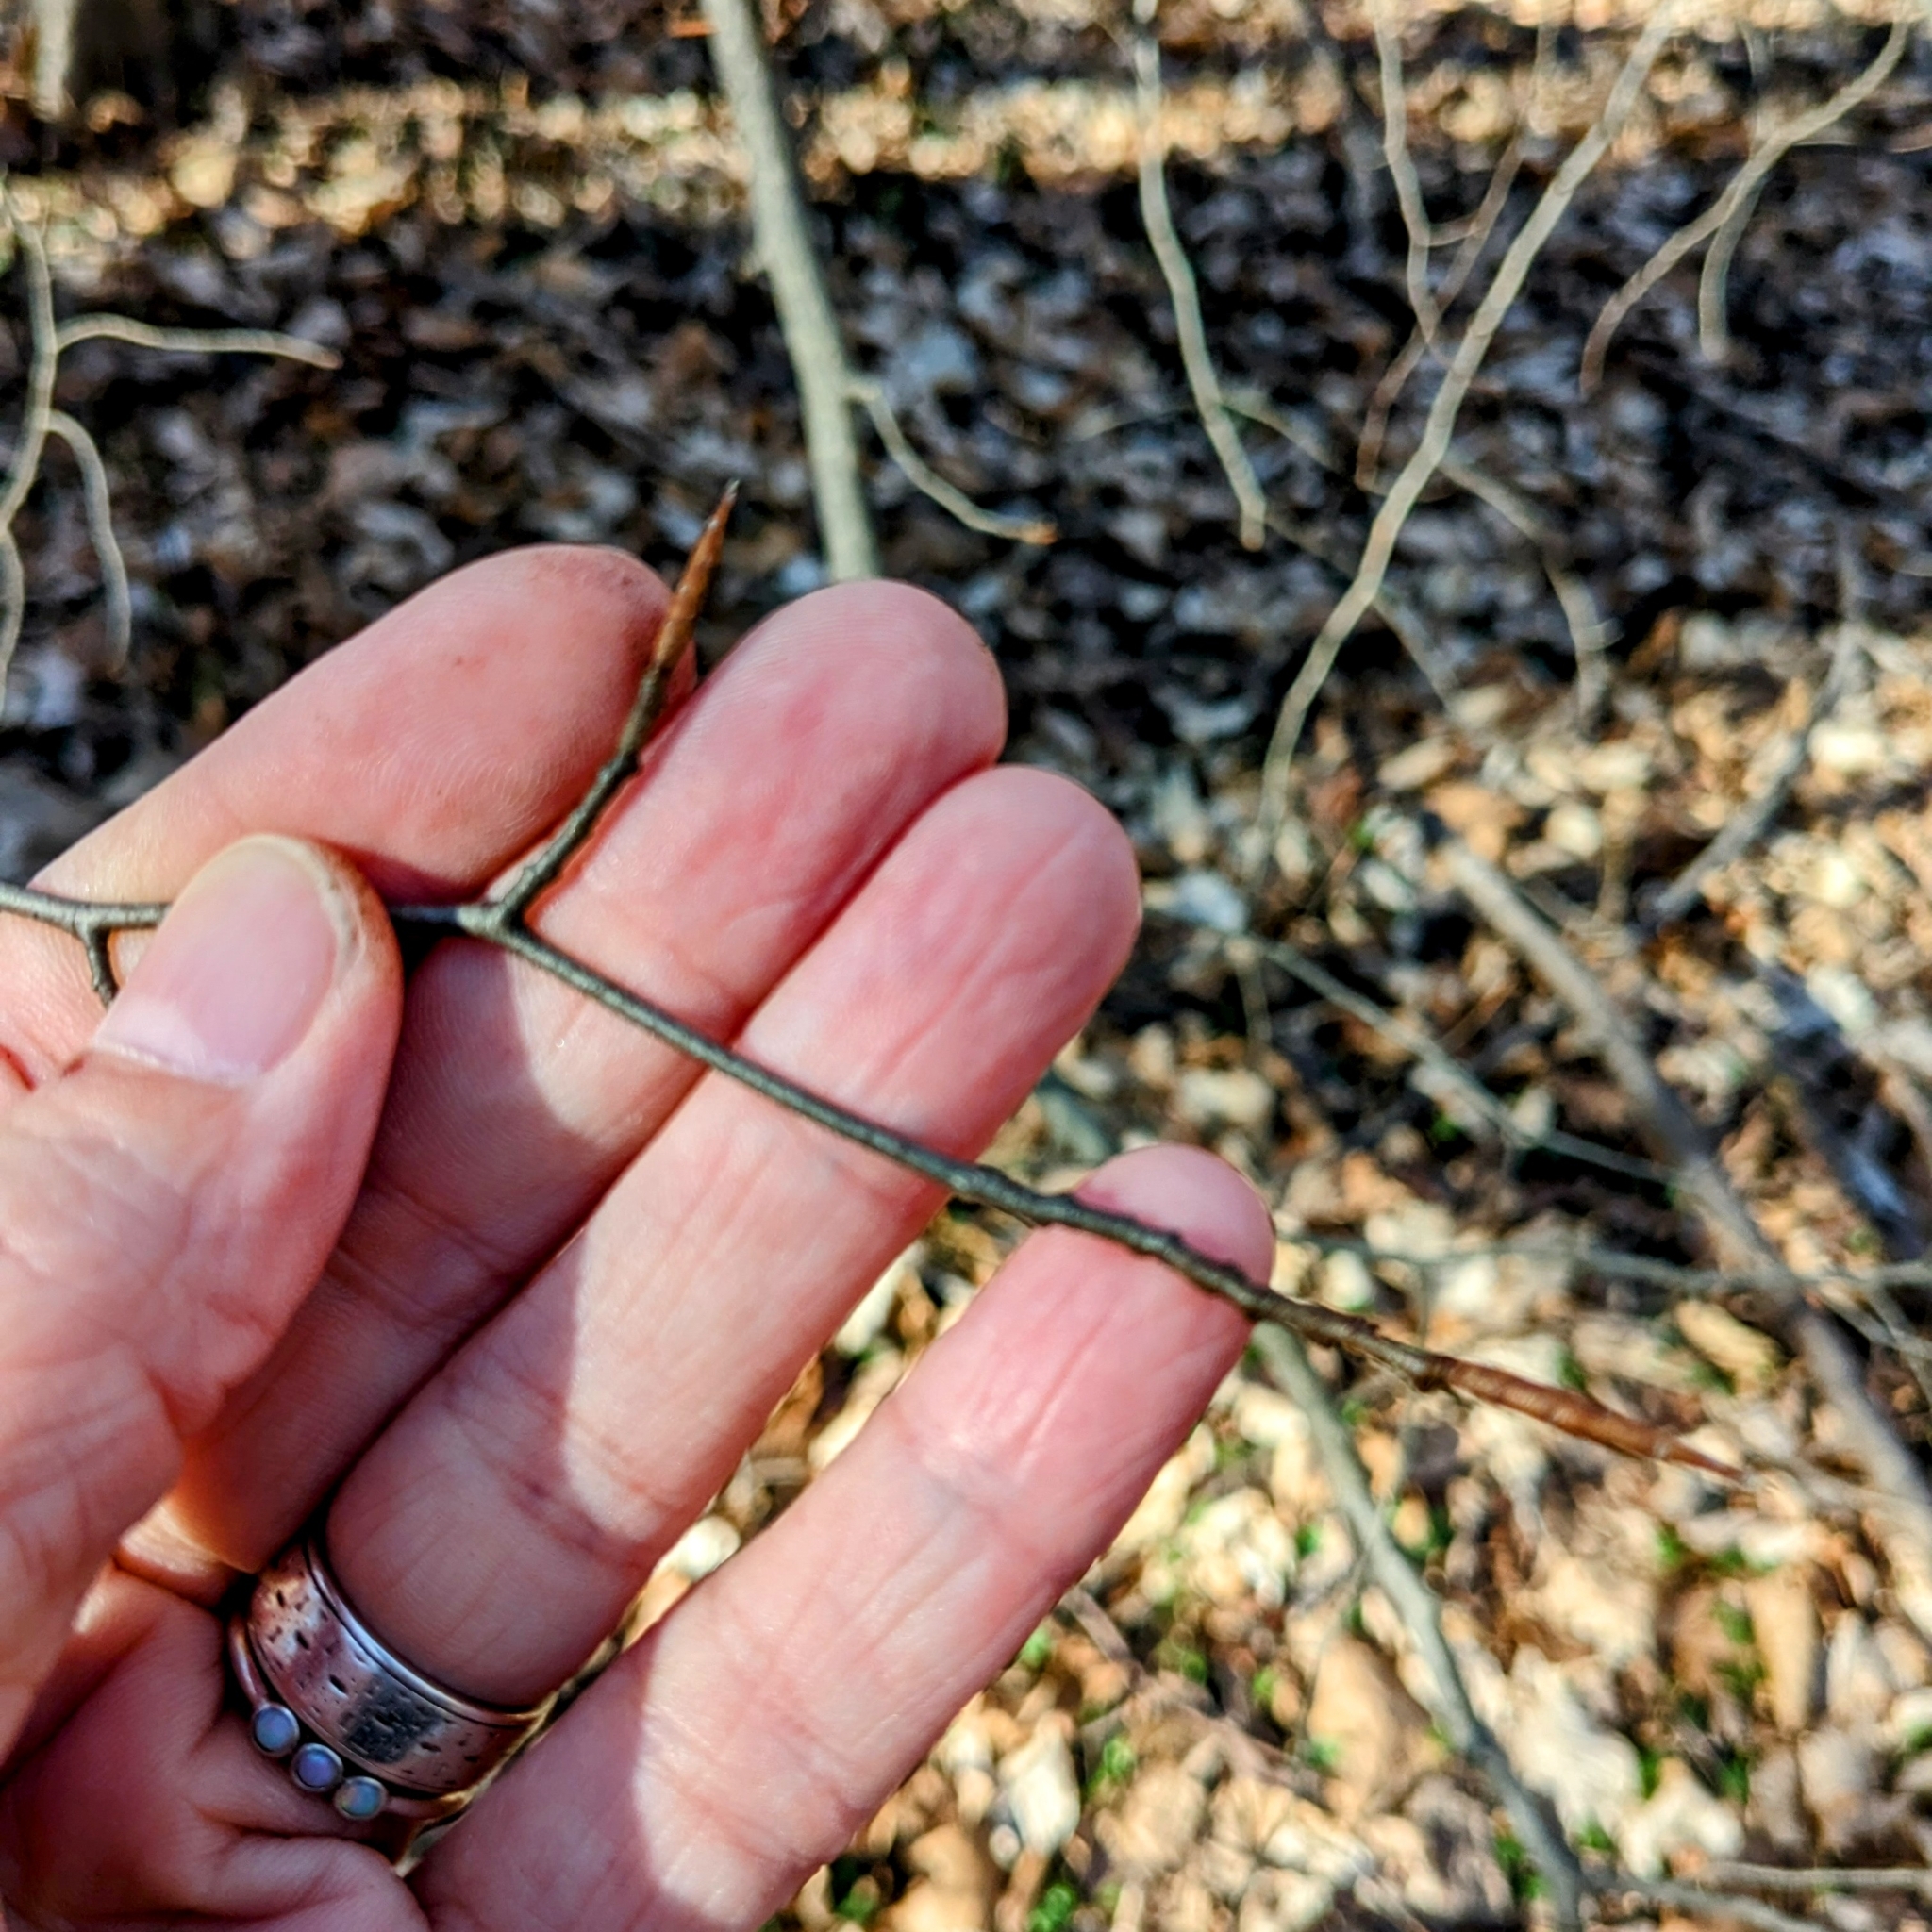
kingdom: Plantae
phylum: Tracheophyta
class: Magnoliopsida
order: Fagales
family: Fagaceae
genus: Fagus
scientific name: Fagus grandifolia
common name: American beech
